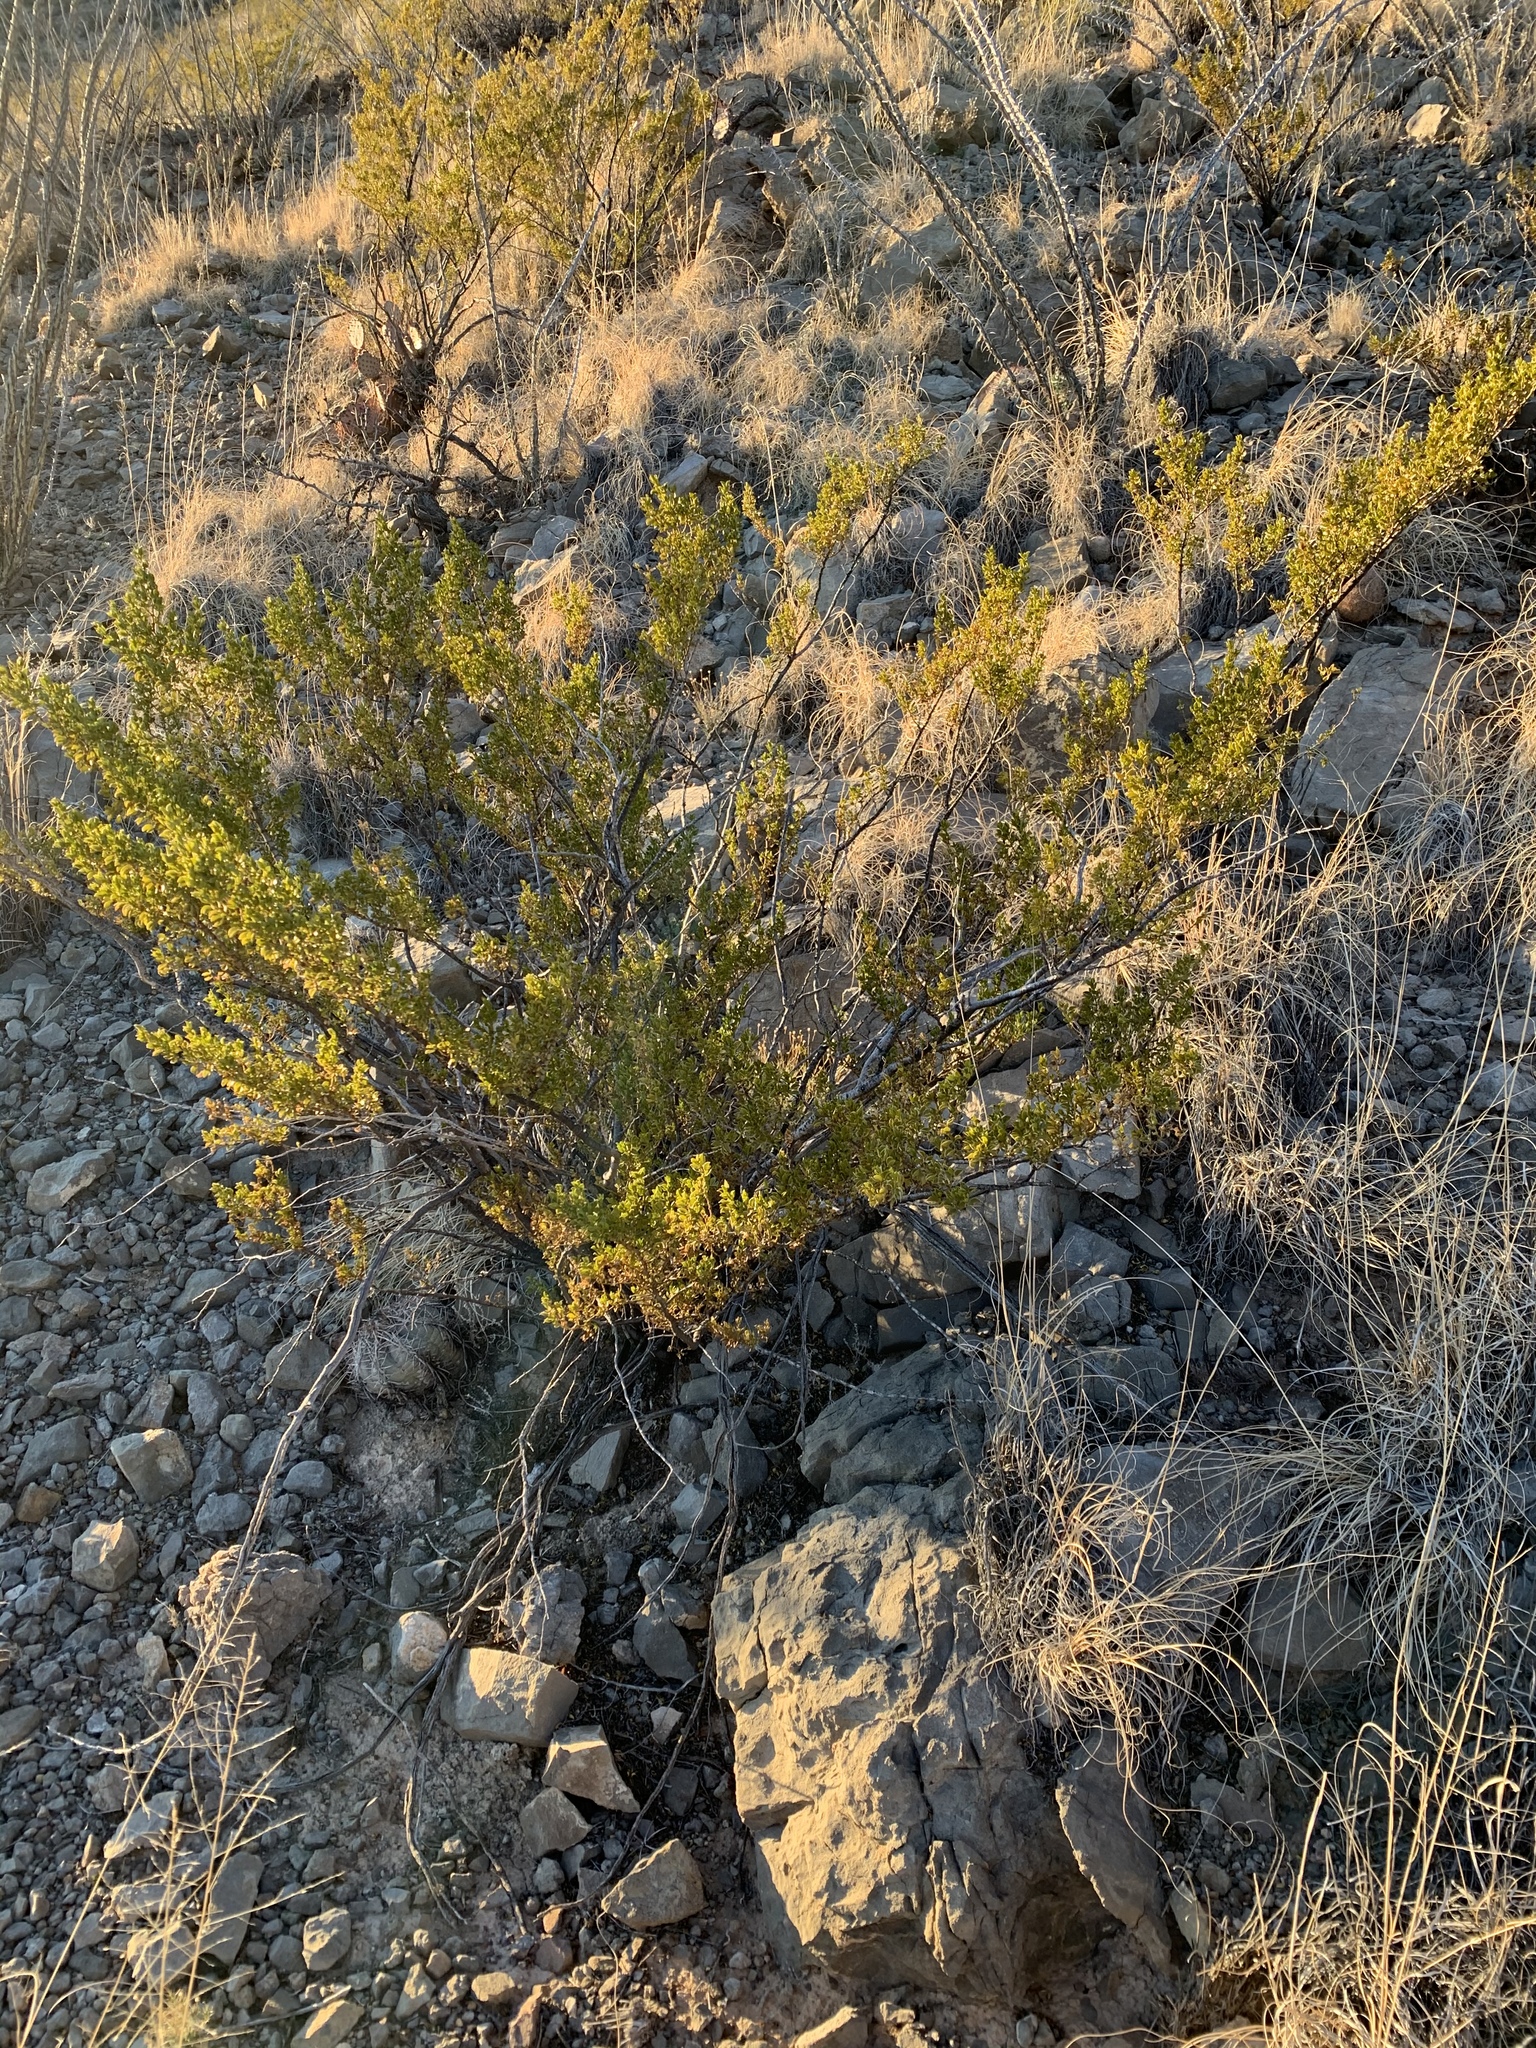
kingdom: Plantae
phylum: Tracheophyta
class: Magnoliopsida
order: Zygophyllales
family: Zygophyllaceae
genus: Larrea
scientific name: Larrea tridentata
